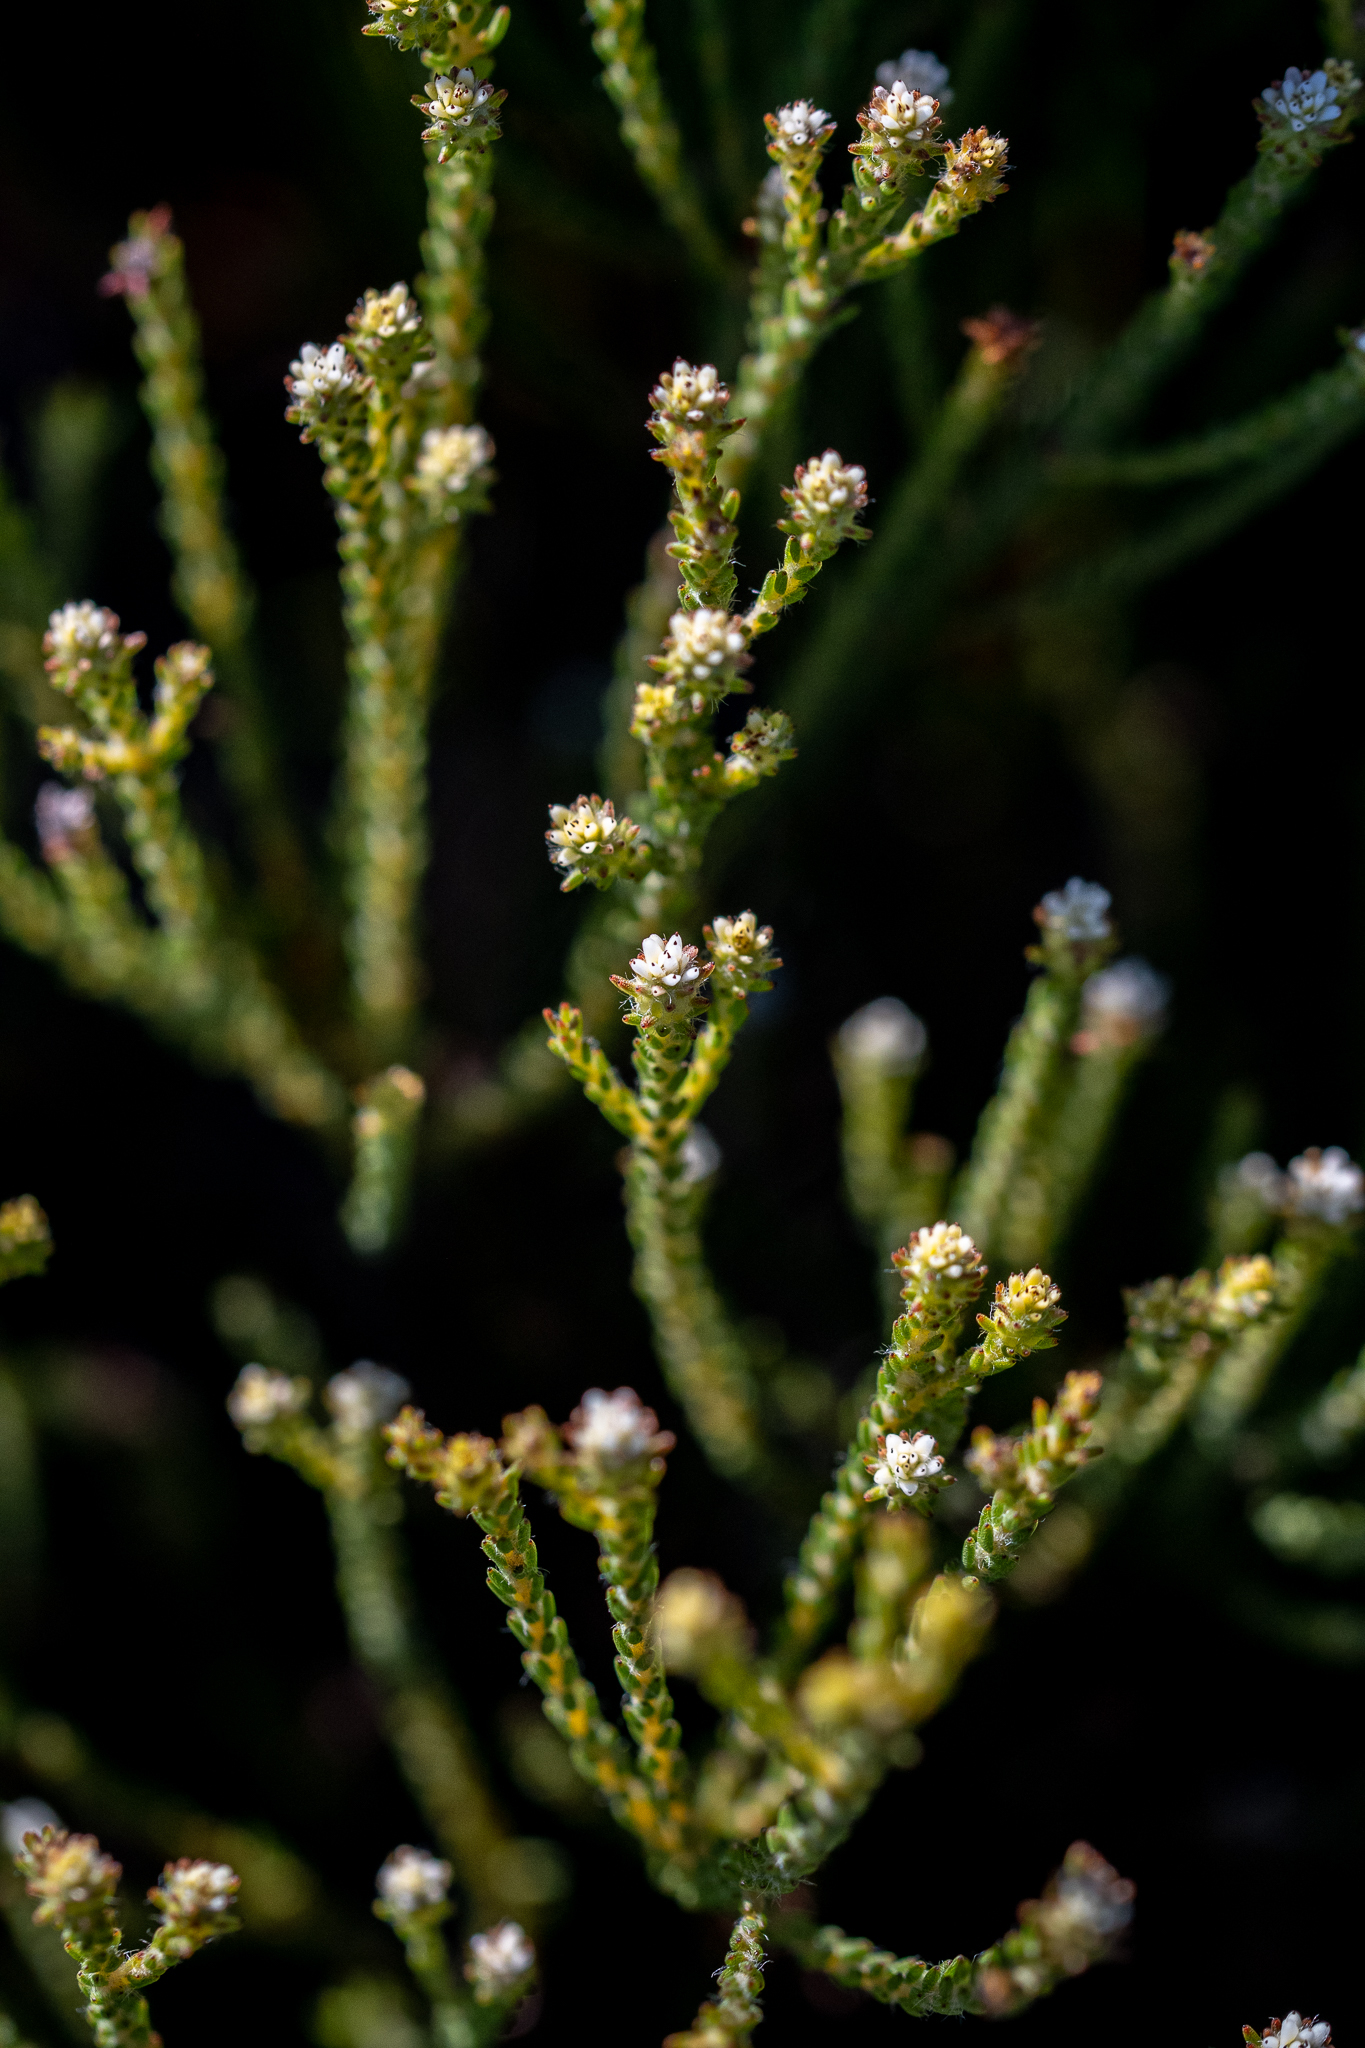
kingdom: Plantae
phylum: Tracheophyta
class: Magnoliopsida
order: Bruniales
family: Bruniaceae
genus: Staavia
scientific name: Staavia radiata
